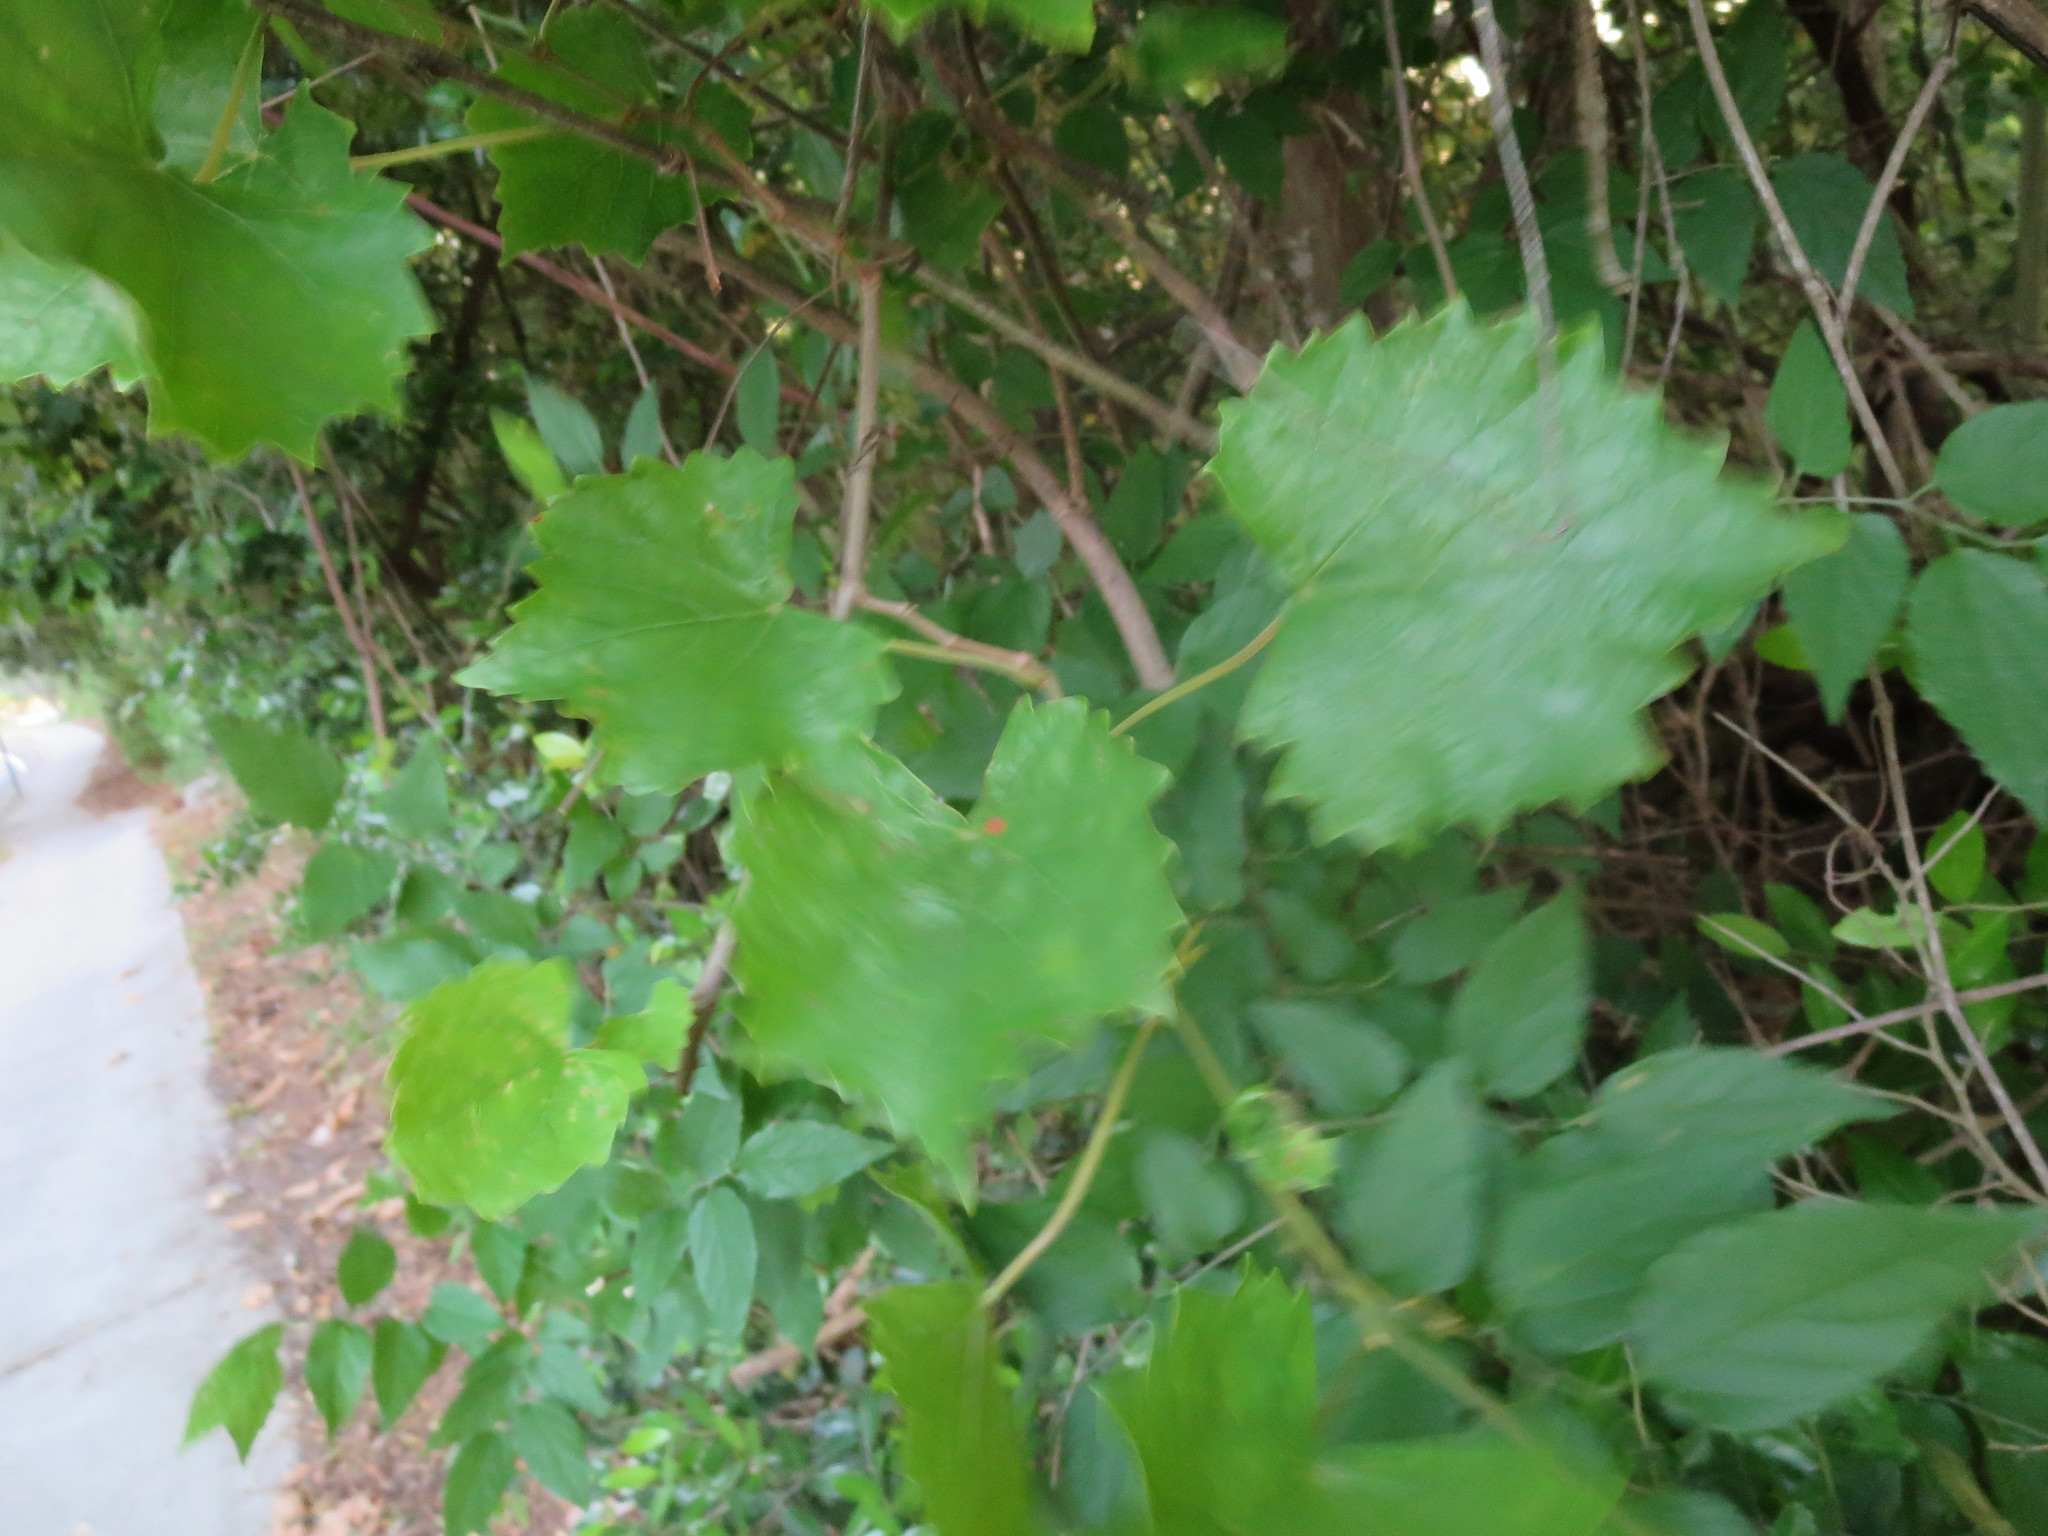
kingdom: Plantae
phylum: Tracheophyta
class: Magnoliopsida
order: Vitales
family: Vitaceae
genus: Vitis
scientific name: Vitis rotundifolia
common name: Muscadine grape
